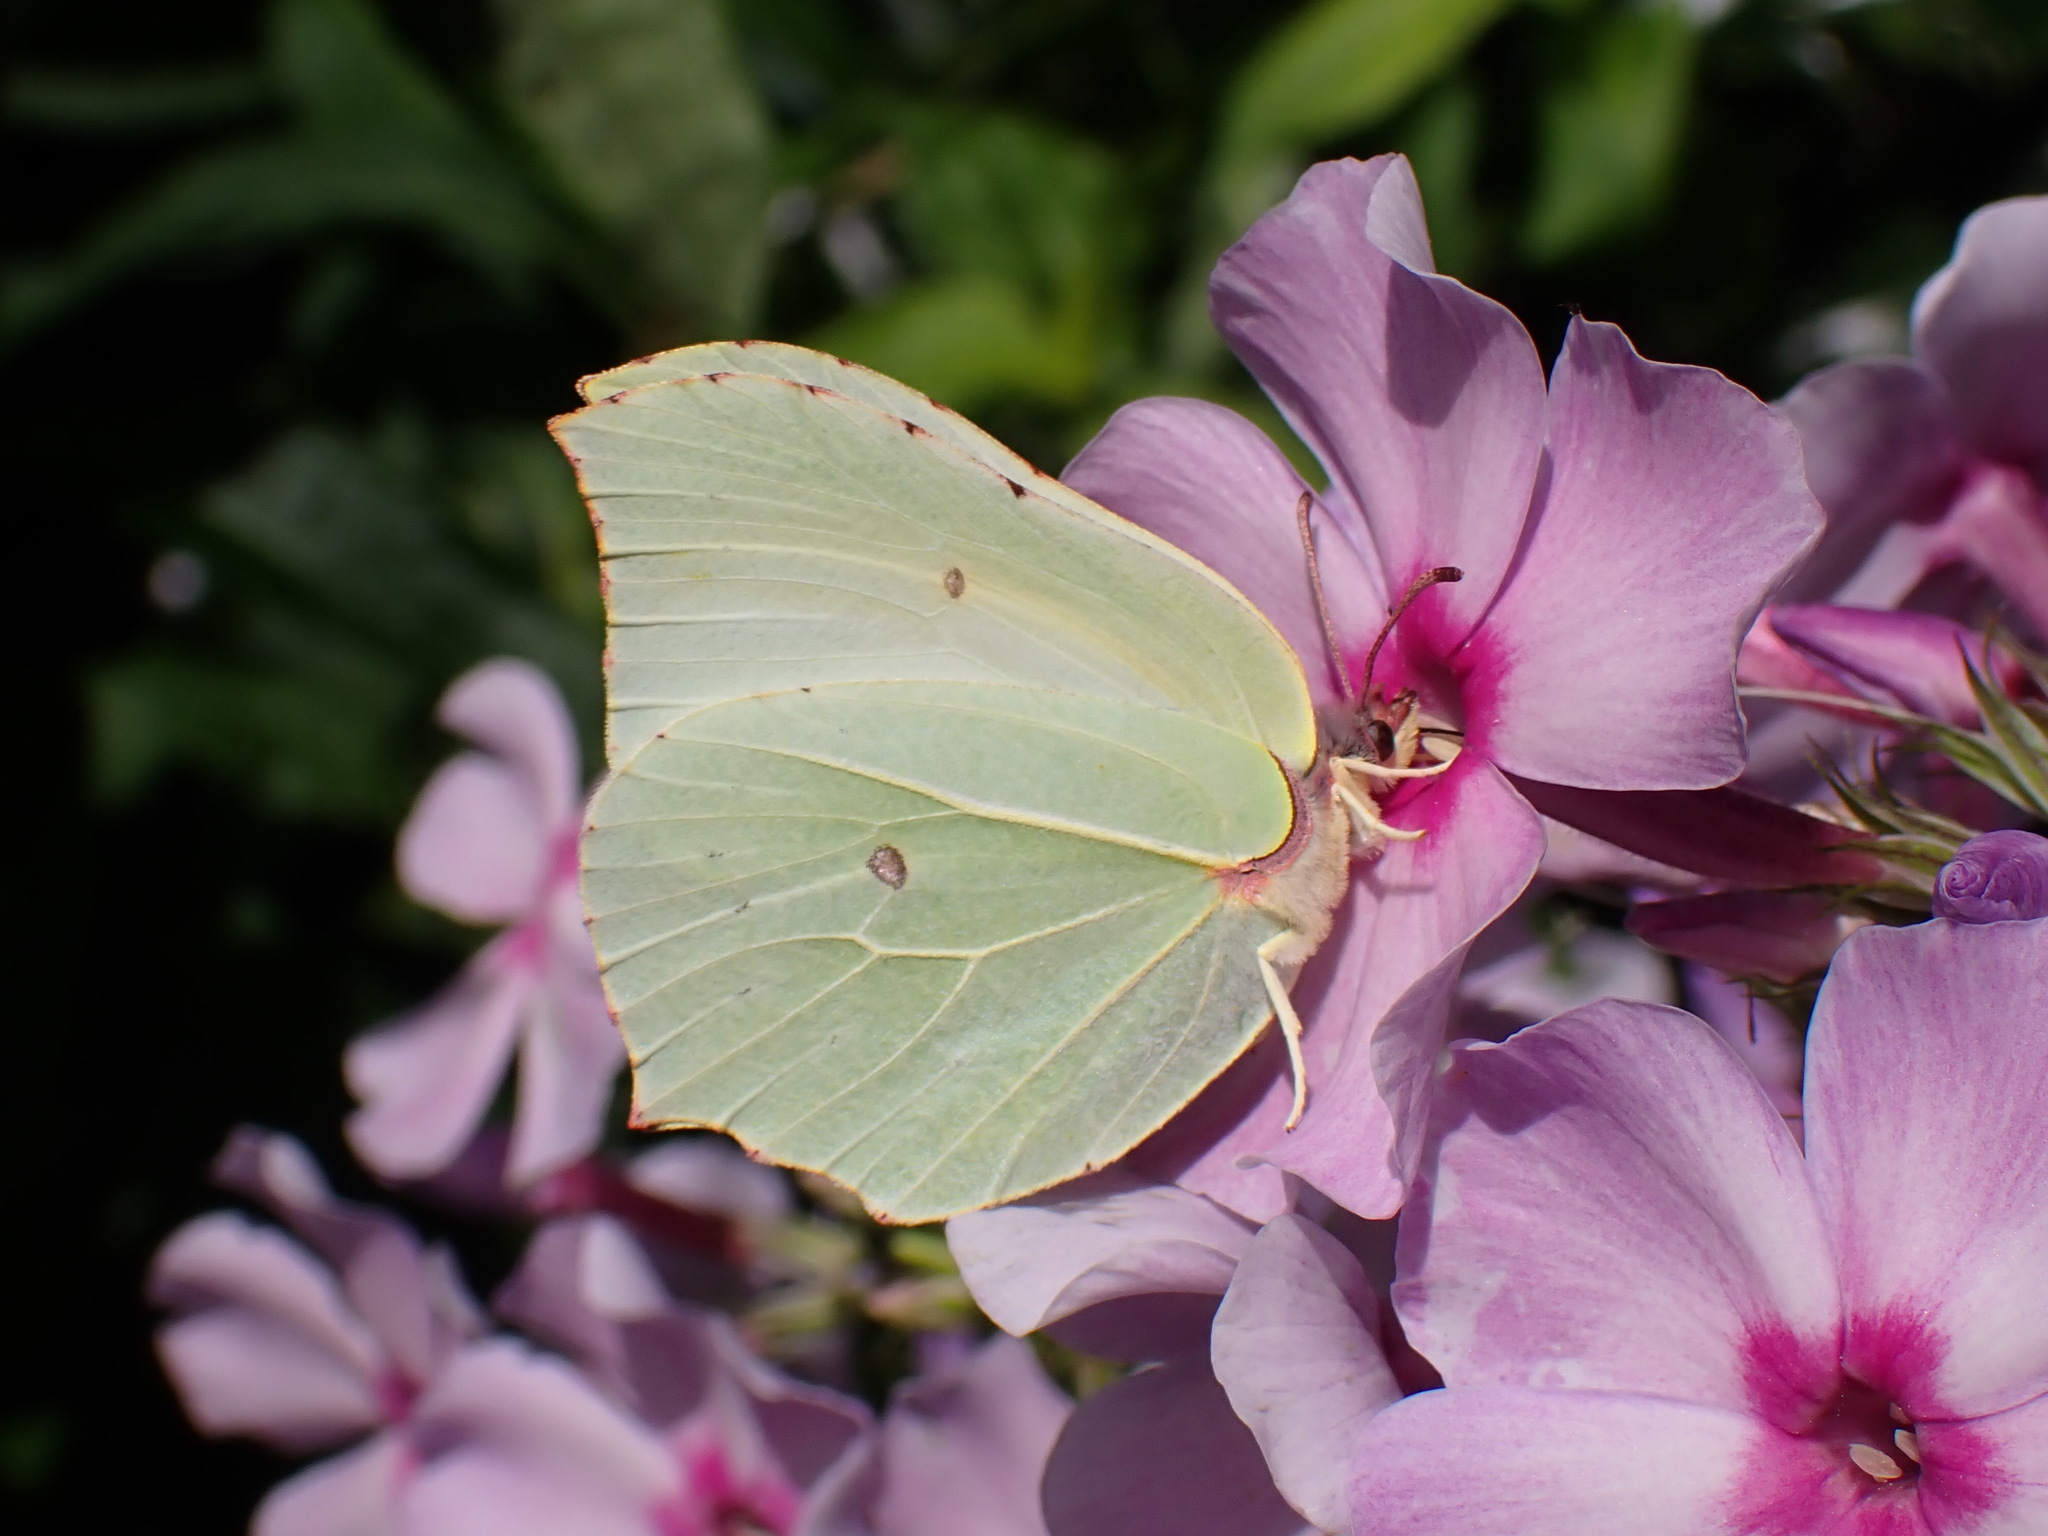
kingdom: Animalia
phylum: Arthropoda
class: Insecta
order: Lepidoptera
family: Pieridae
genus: Gonepteryx
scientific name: Gonepteryx rhamni
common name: Brimstone
